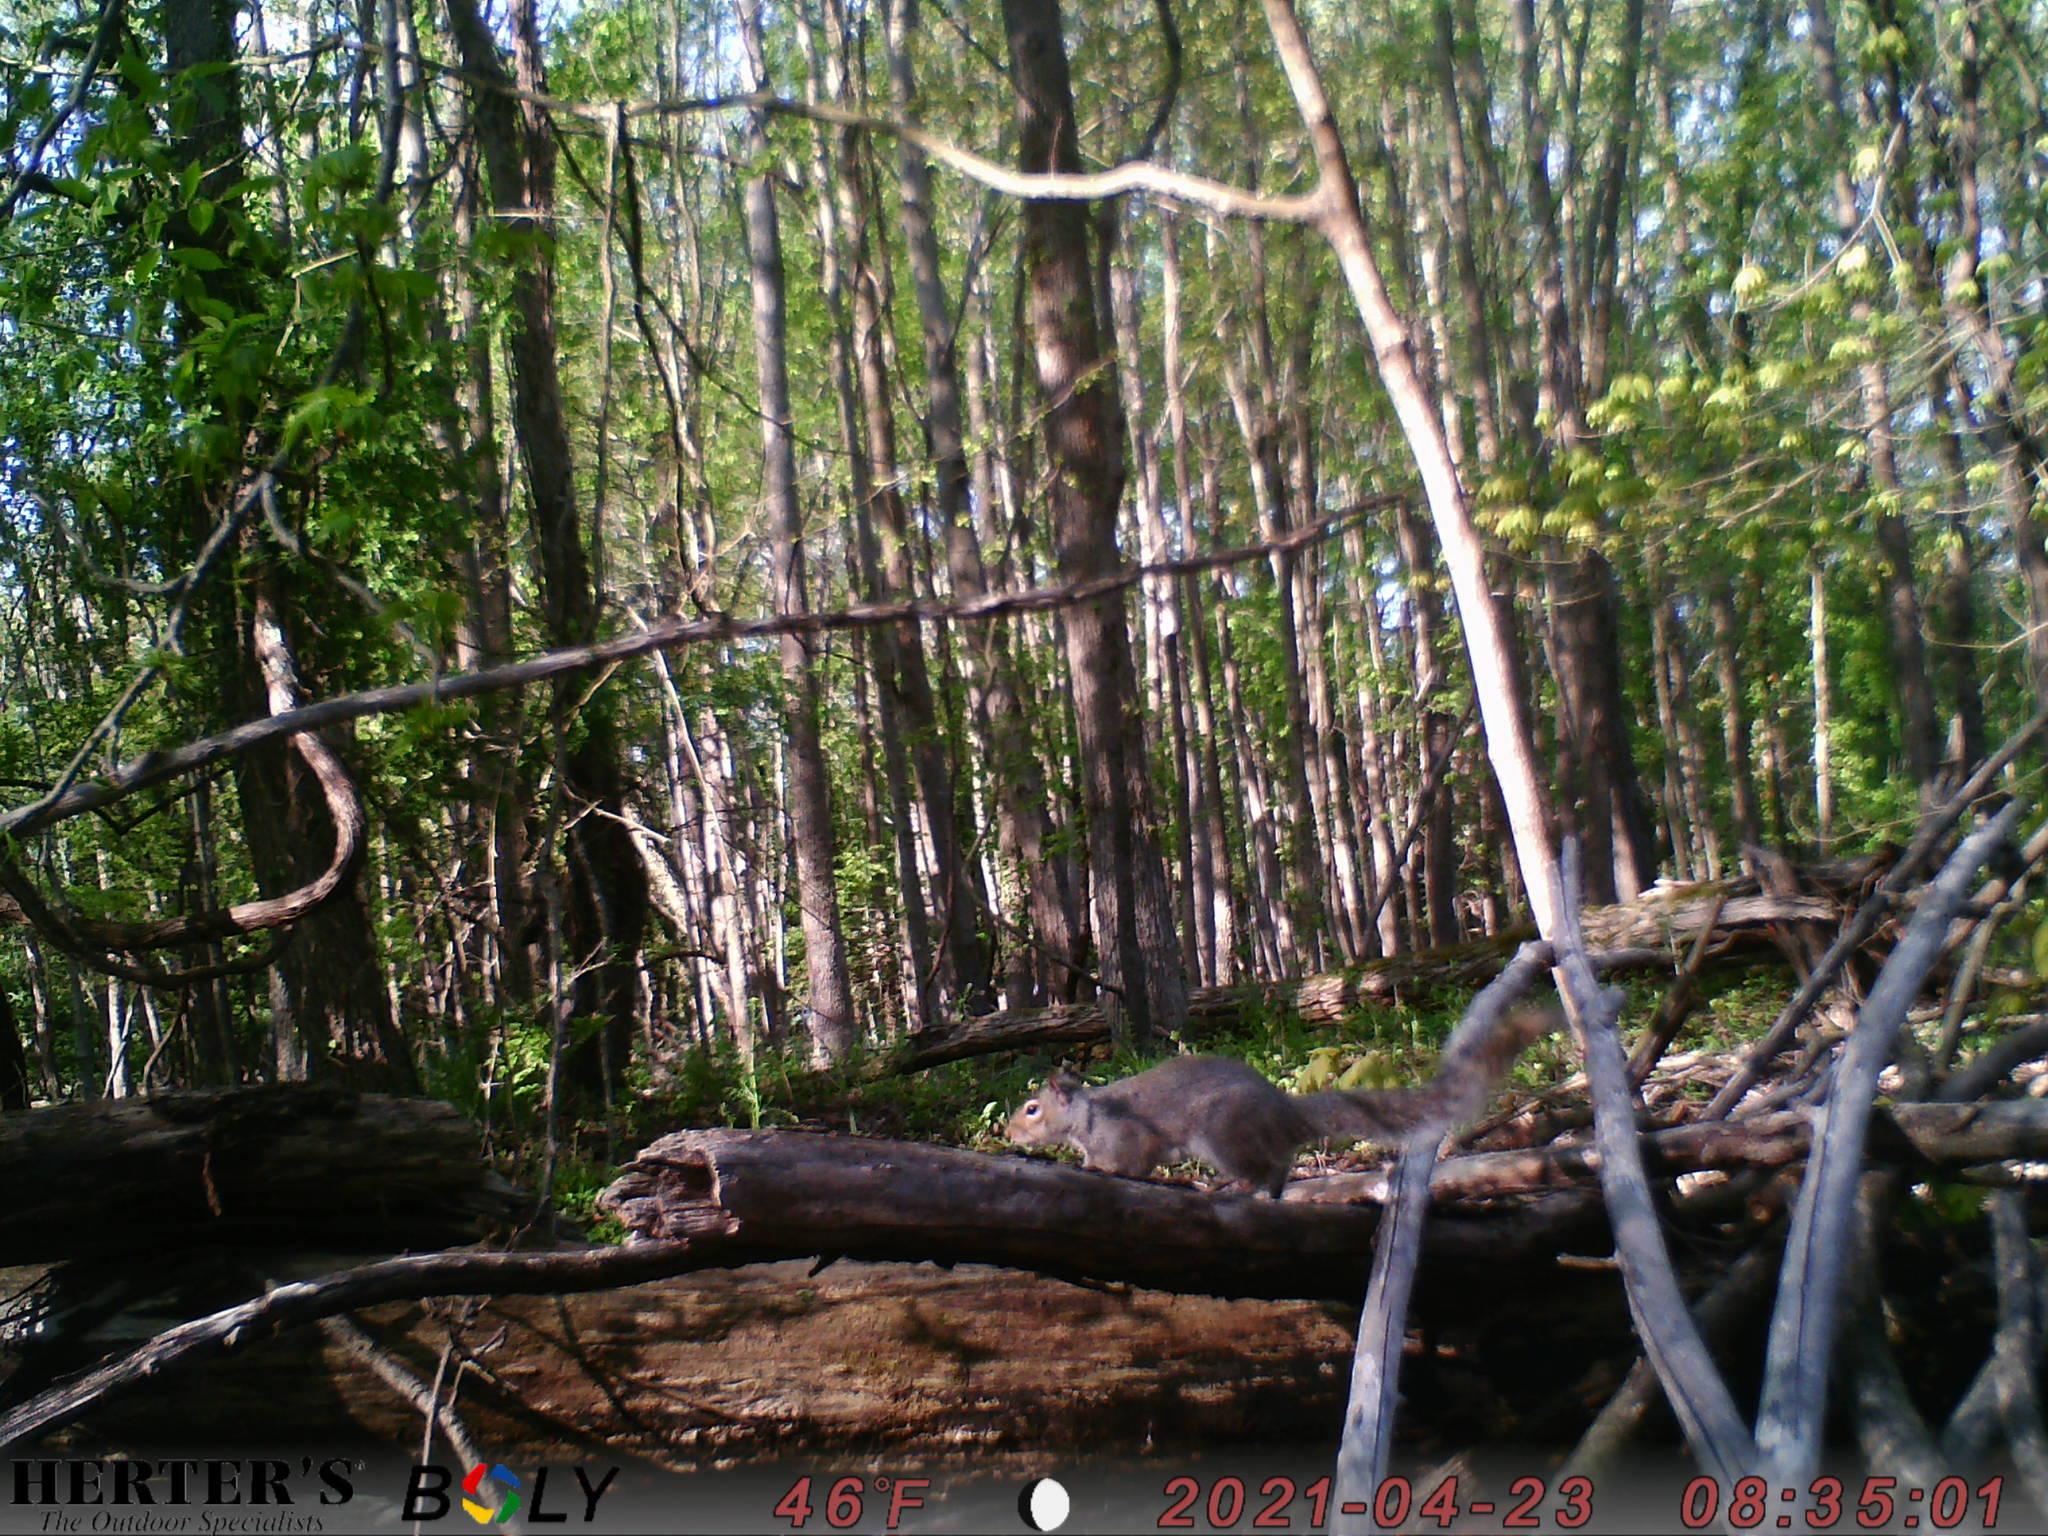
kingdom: Animalia
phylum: Chordata
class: Mammalia
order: Rodentia
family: Sciuridae
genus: Sciurus
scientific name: Sciurus carolinensis
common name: Eastern gray squirrel
